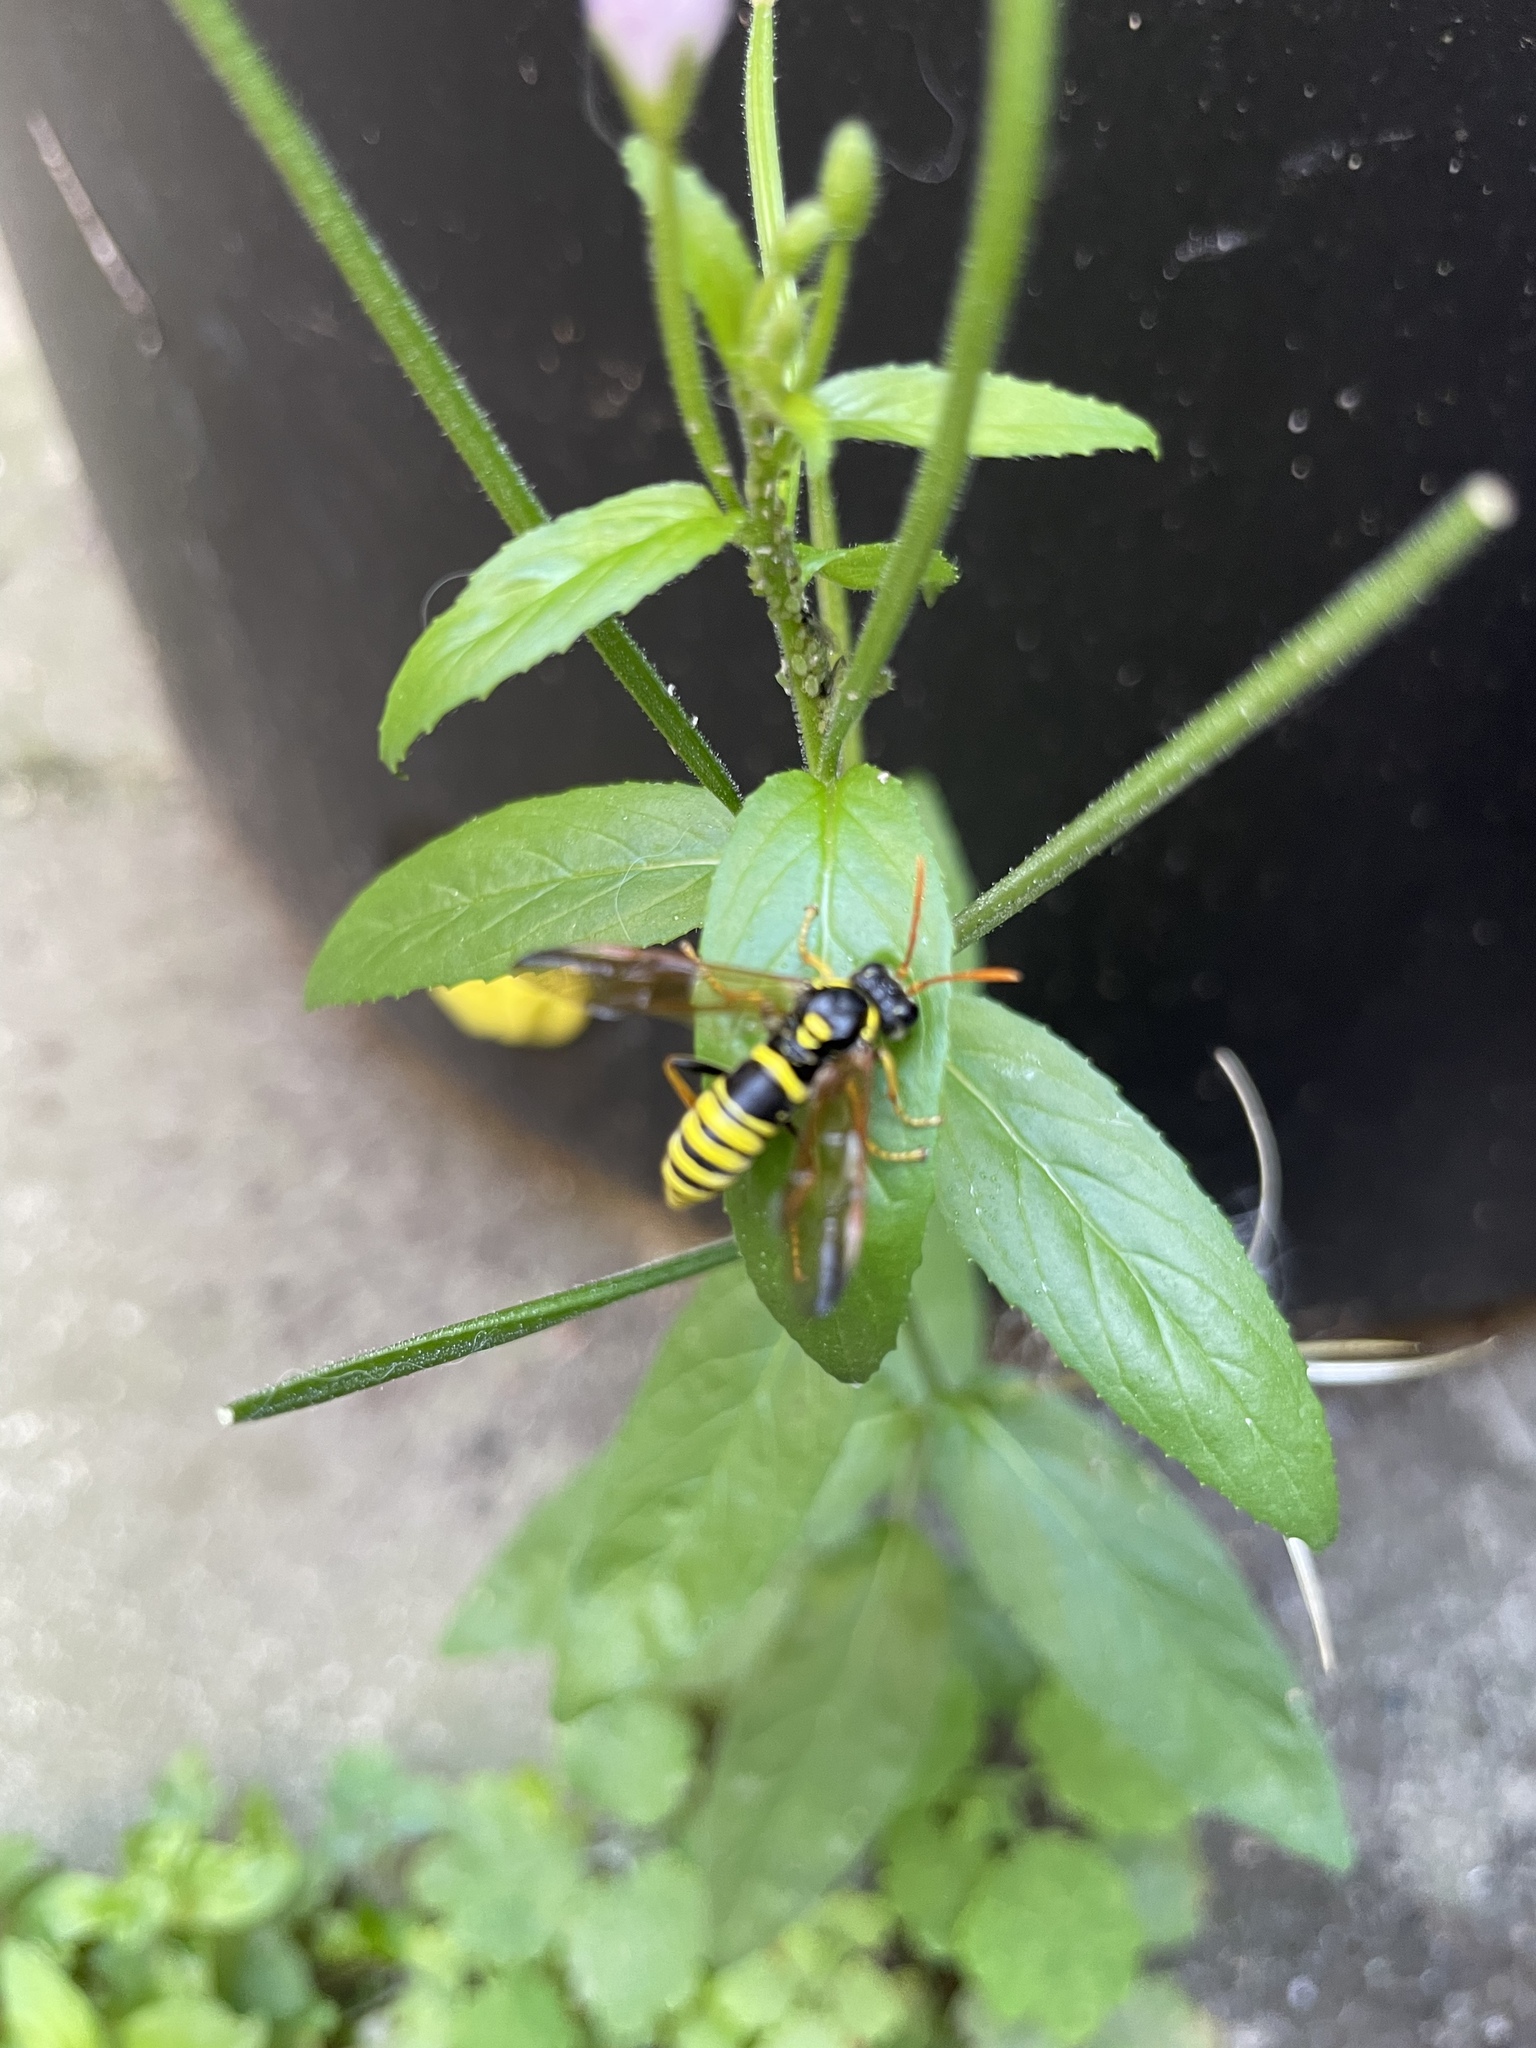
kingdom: Animalia
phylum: Arthropoda
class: Insecta
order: Hymenoptera
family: Eumenidae
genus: Polistes
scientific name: Polistes dominula
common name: Paper wasp
